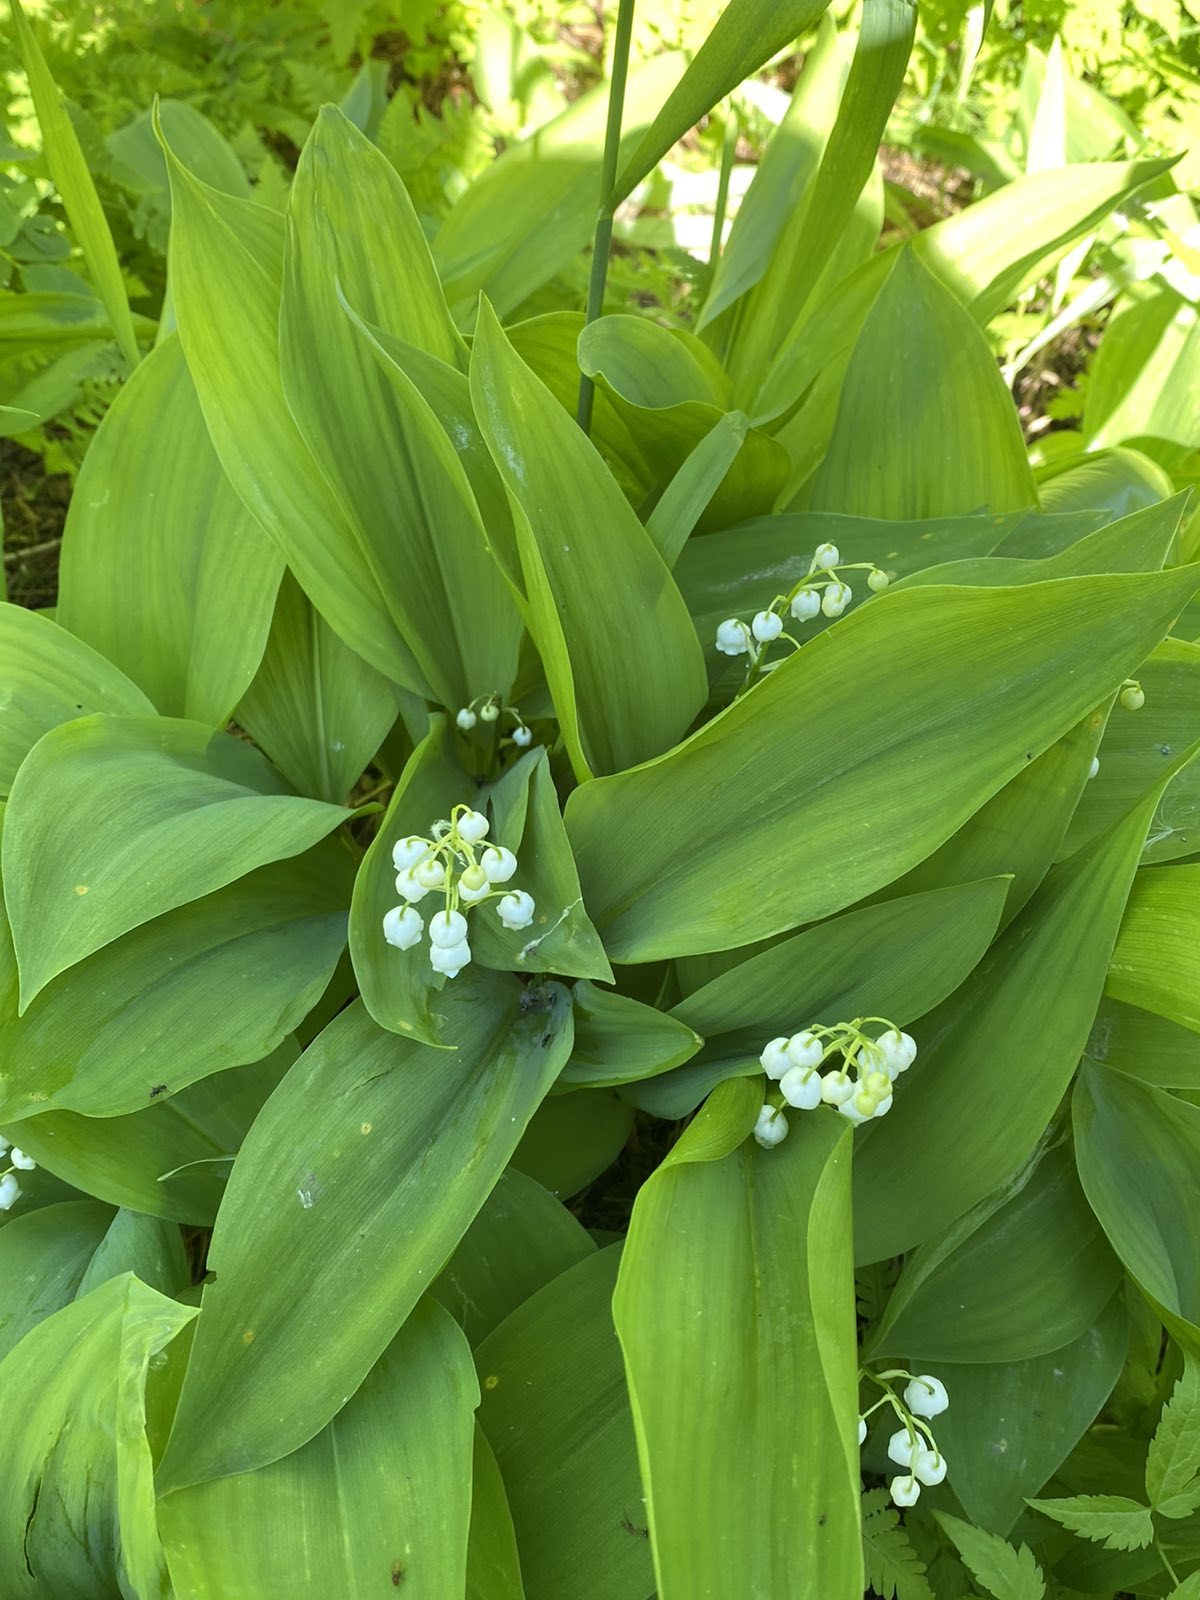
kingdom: Plantae
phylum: Tracheophyta
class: Liliopsida
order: Asparagales
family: Asparagaceae
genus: Convallaria
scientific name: Convallaria majalis
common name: Lily-of-the-valley
